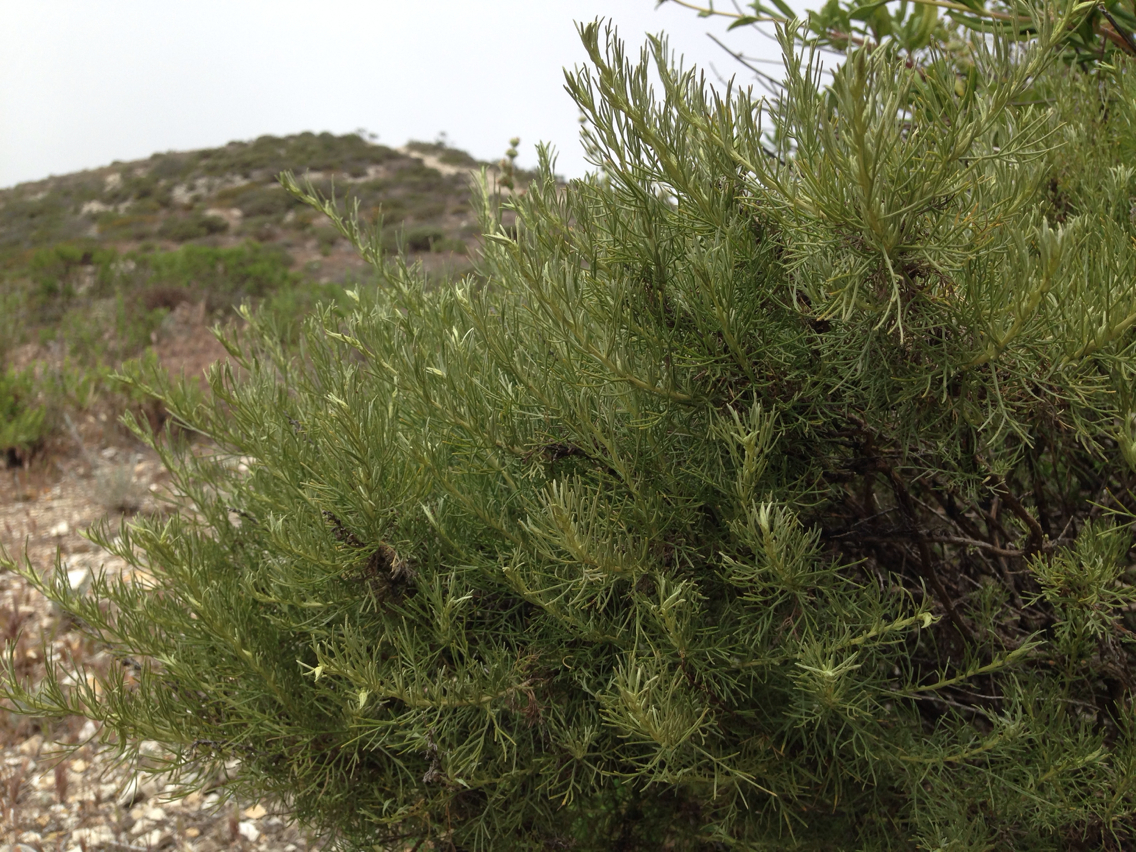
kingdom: Plantae
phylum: Tracheophyta
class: Magnoliopsida
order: Asterales
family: Asteraceae
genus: Artemisia
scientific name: Artemisia californica
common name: California sagebrush
